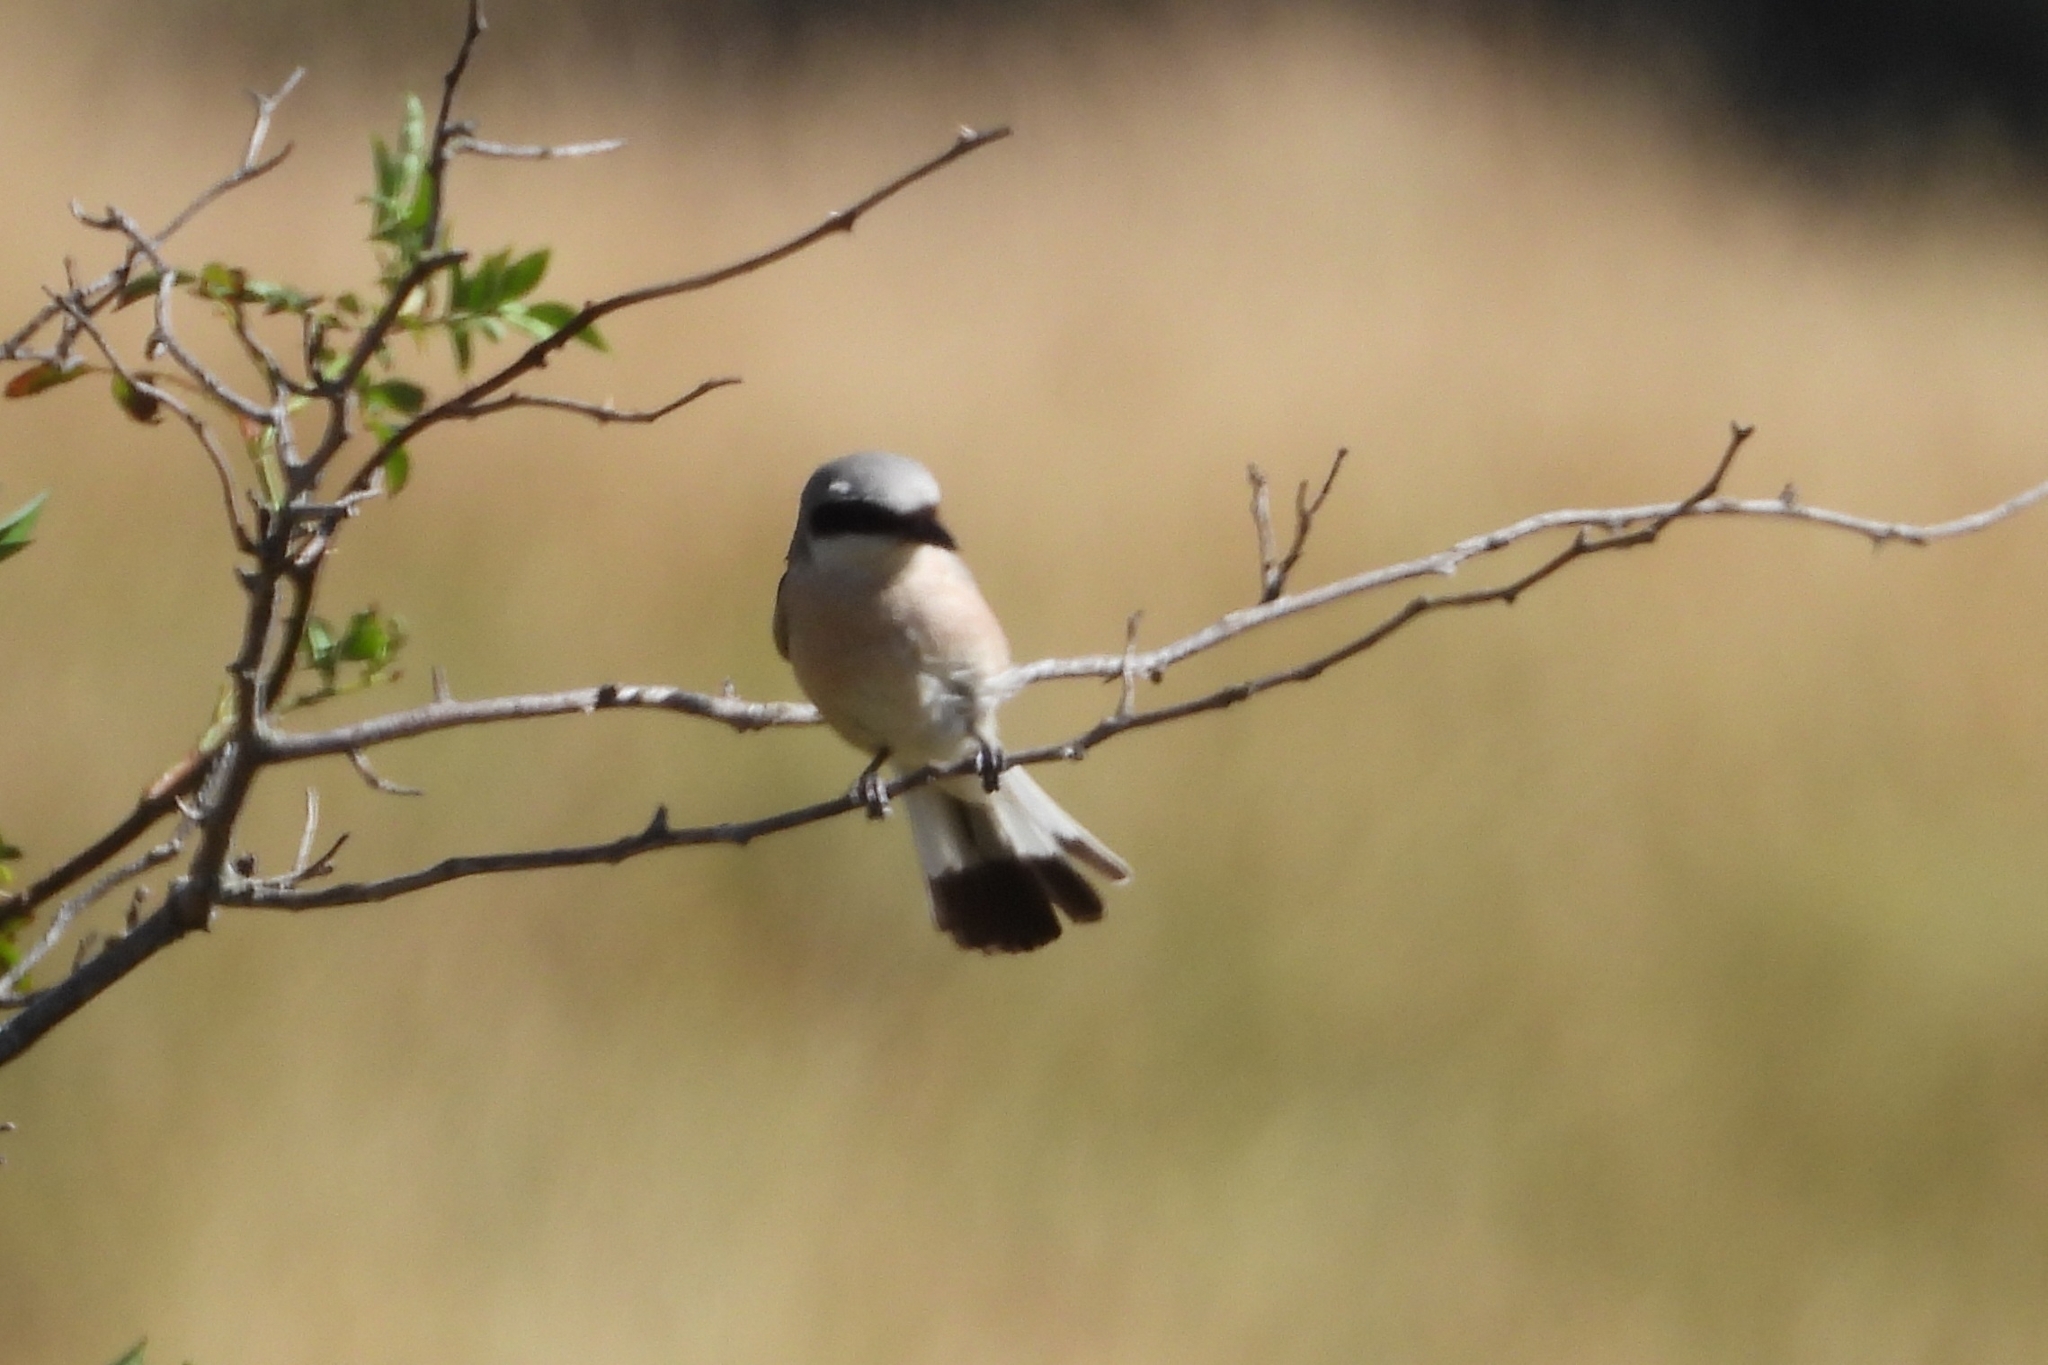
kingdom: Animalia
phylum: Chordata
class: Aves
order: Passeriformes
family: Laniidae
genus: Lanius
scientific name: Lanius collurio
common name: Red-backed shrike
